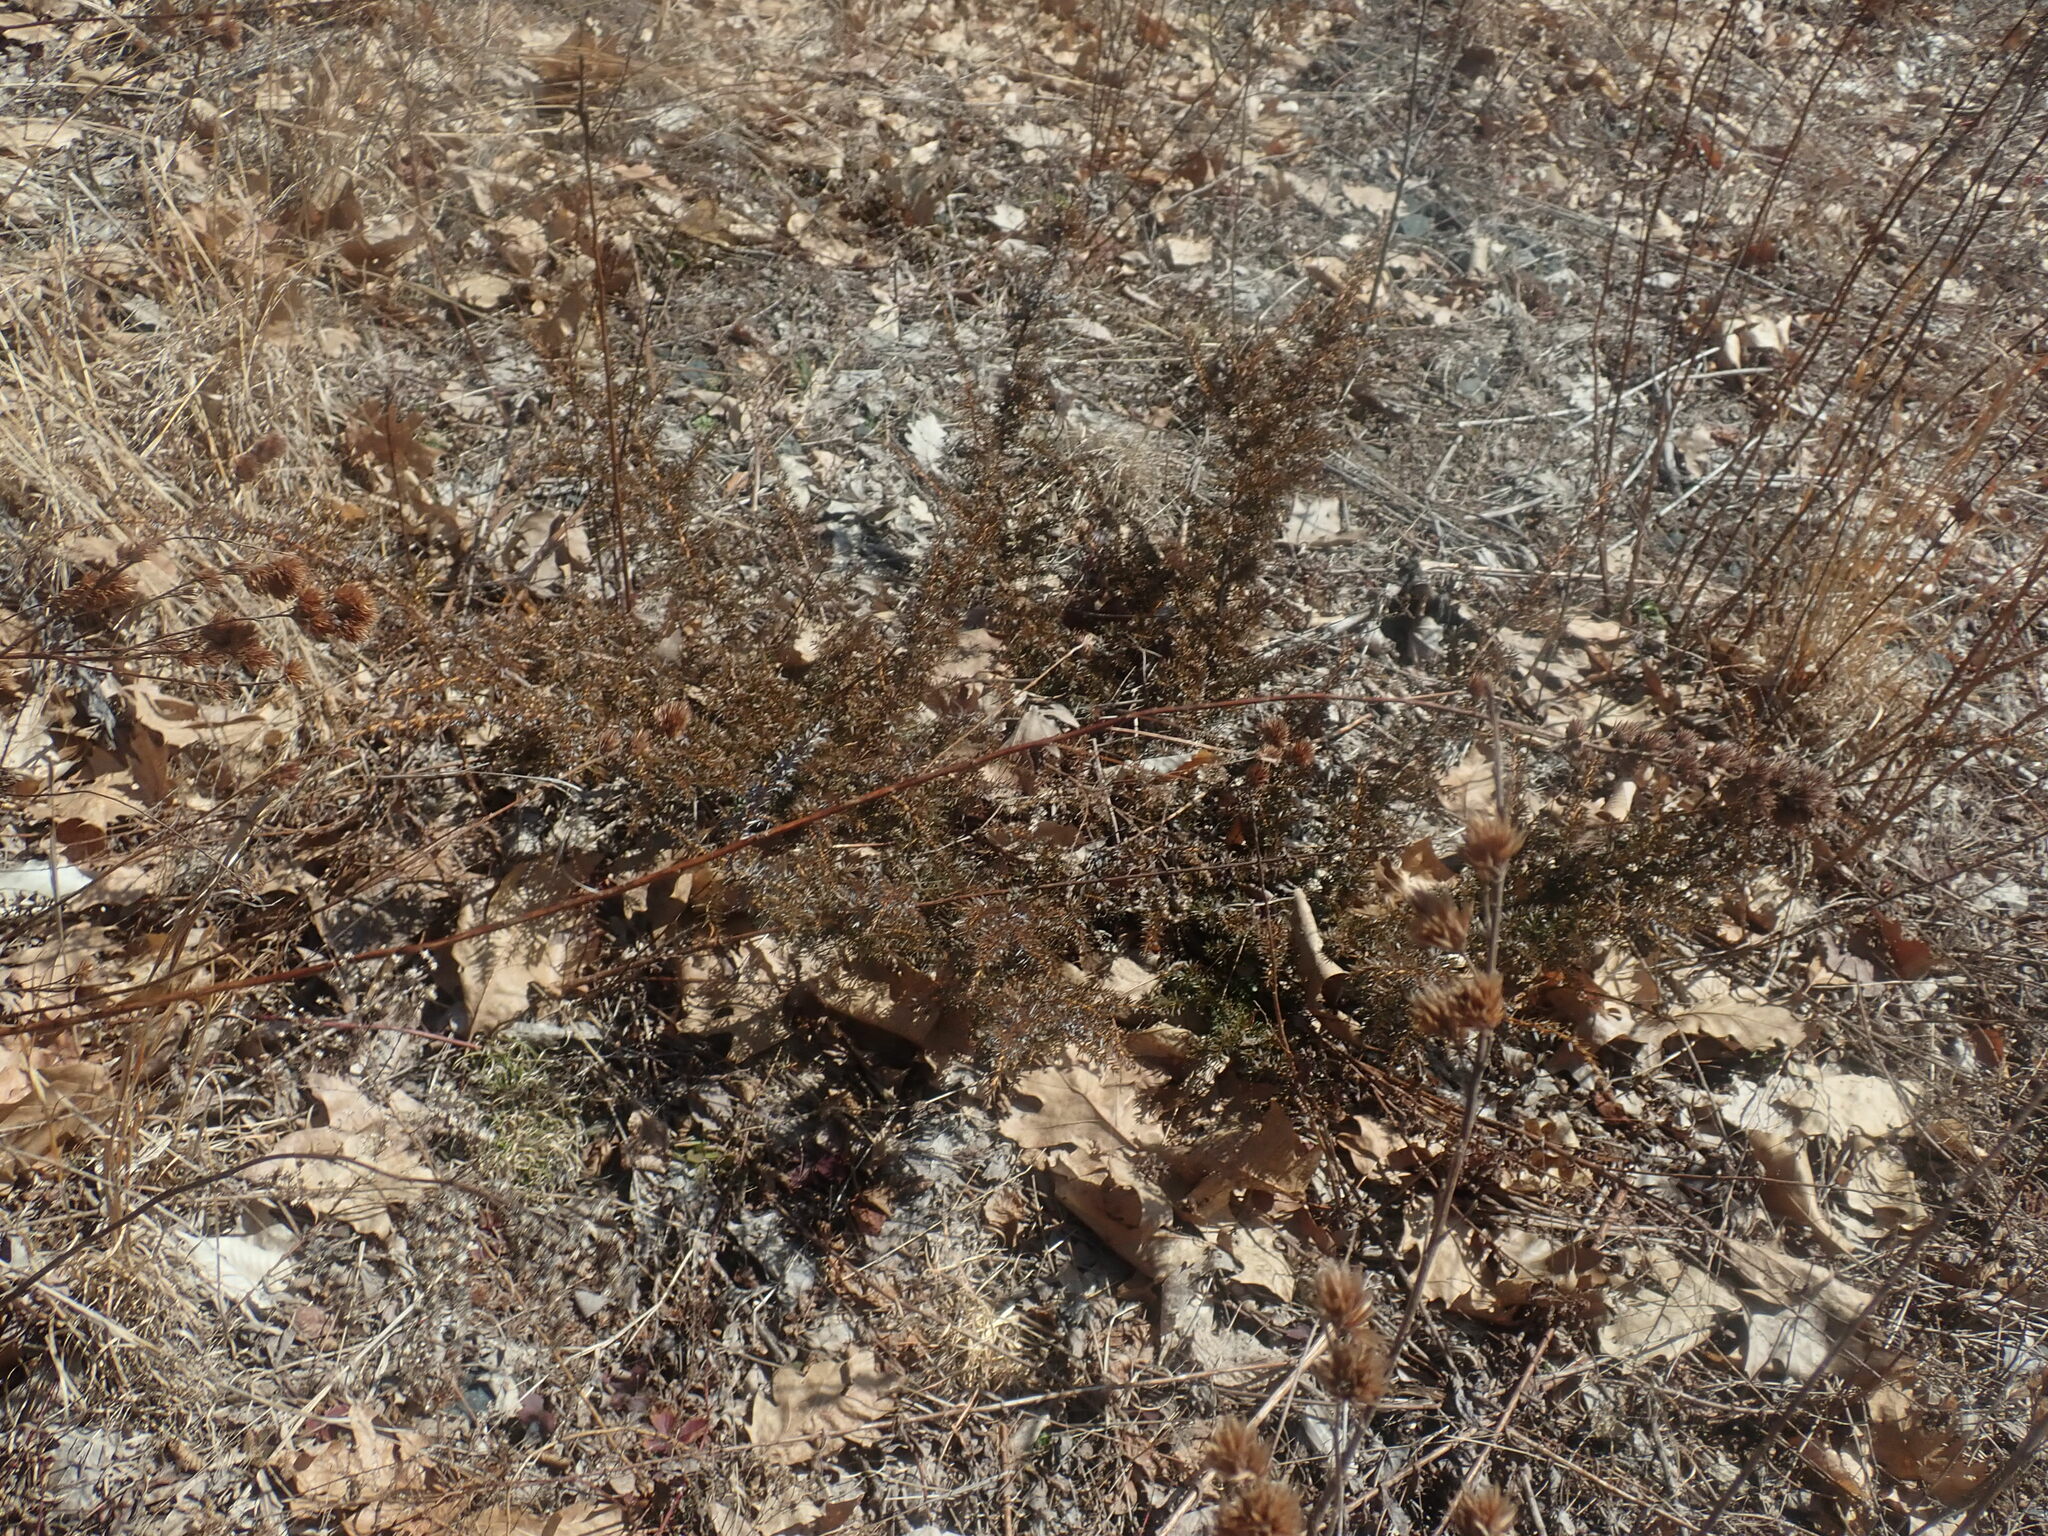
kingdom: Plantae
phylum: Tracheophyta
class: Pinopsida
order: Pinales
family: Cupressaceae
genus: Juniperus
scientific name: Juniperus communis
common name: Common juniper
